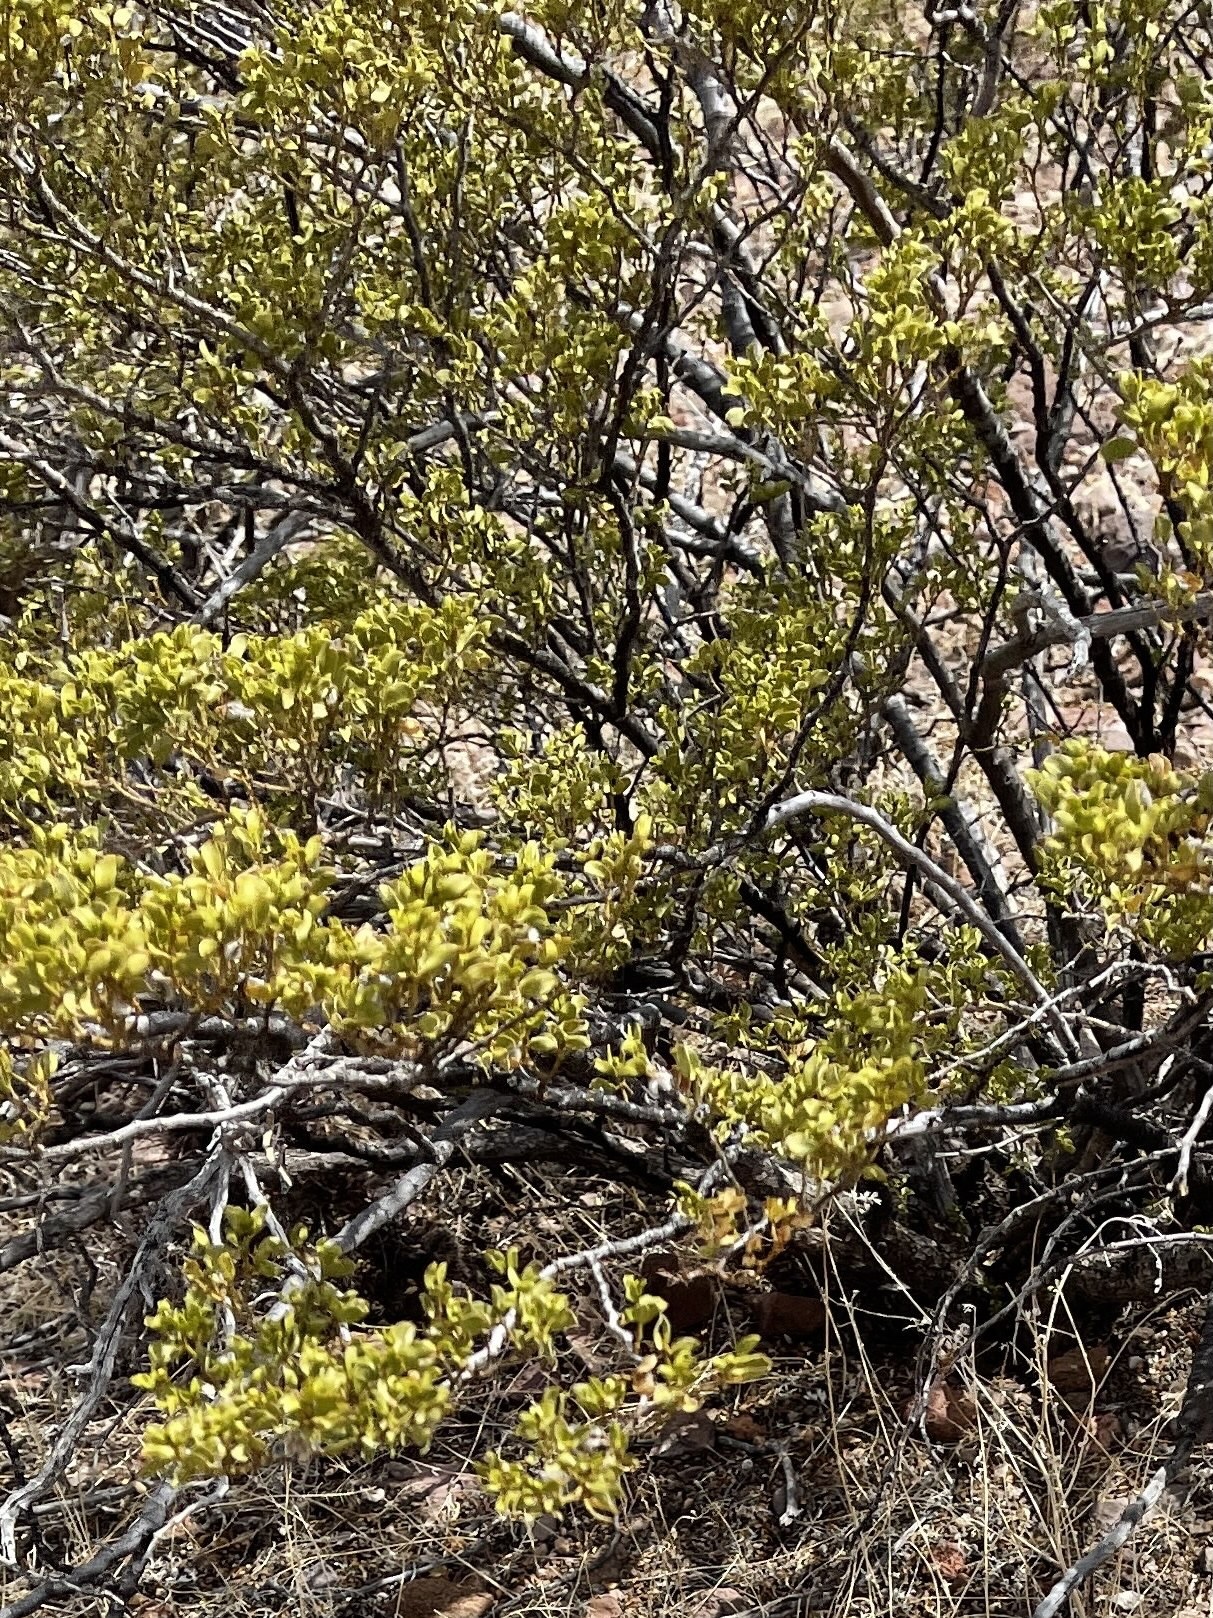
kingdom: Plantae
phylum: Tracheophyta
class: Magnoliopsida
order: Zygophyllales
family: Zygophyllaceae
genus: Larrea
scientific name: Larrea tridentata
